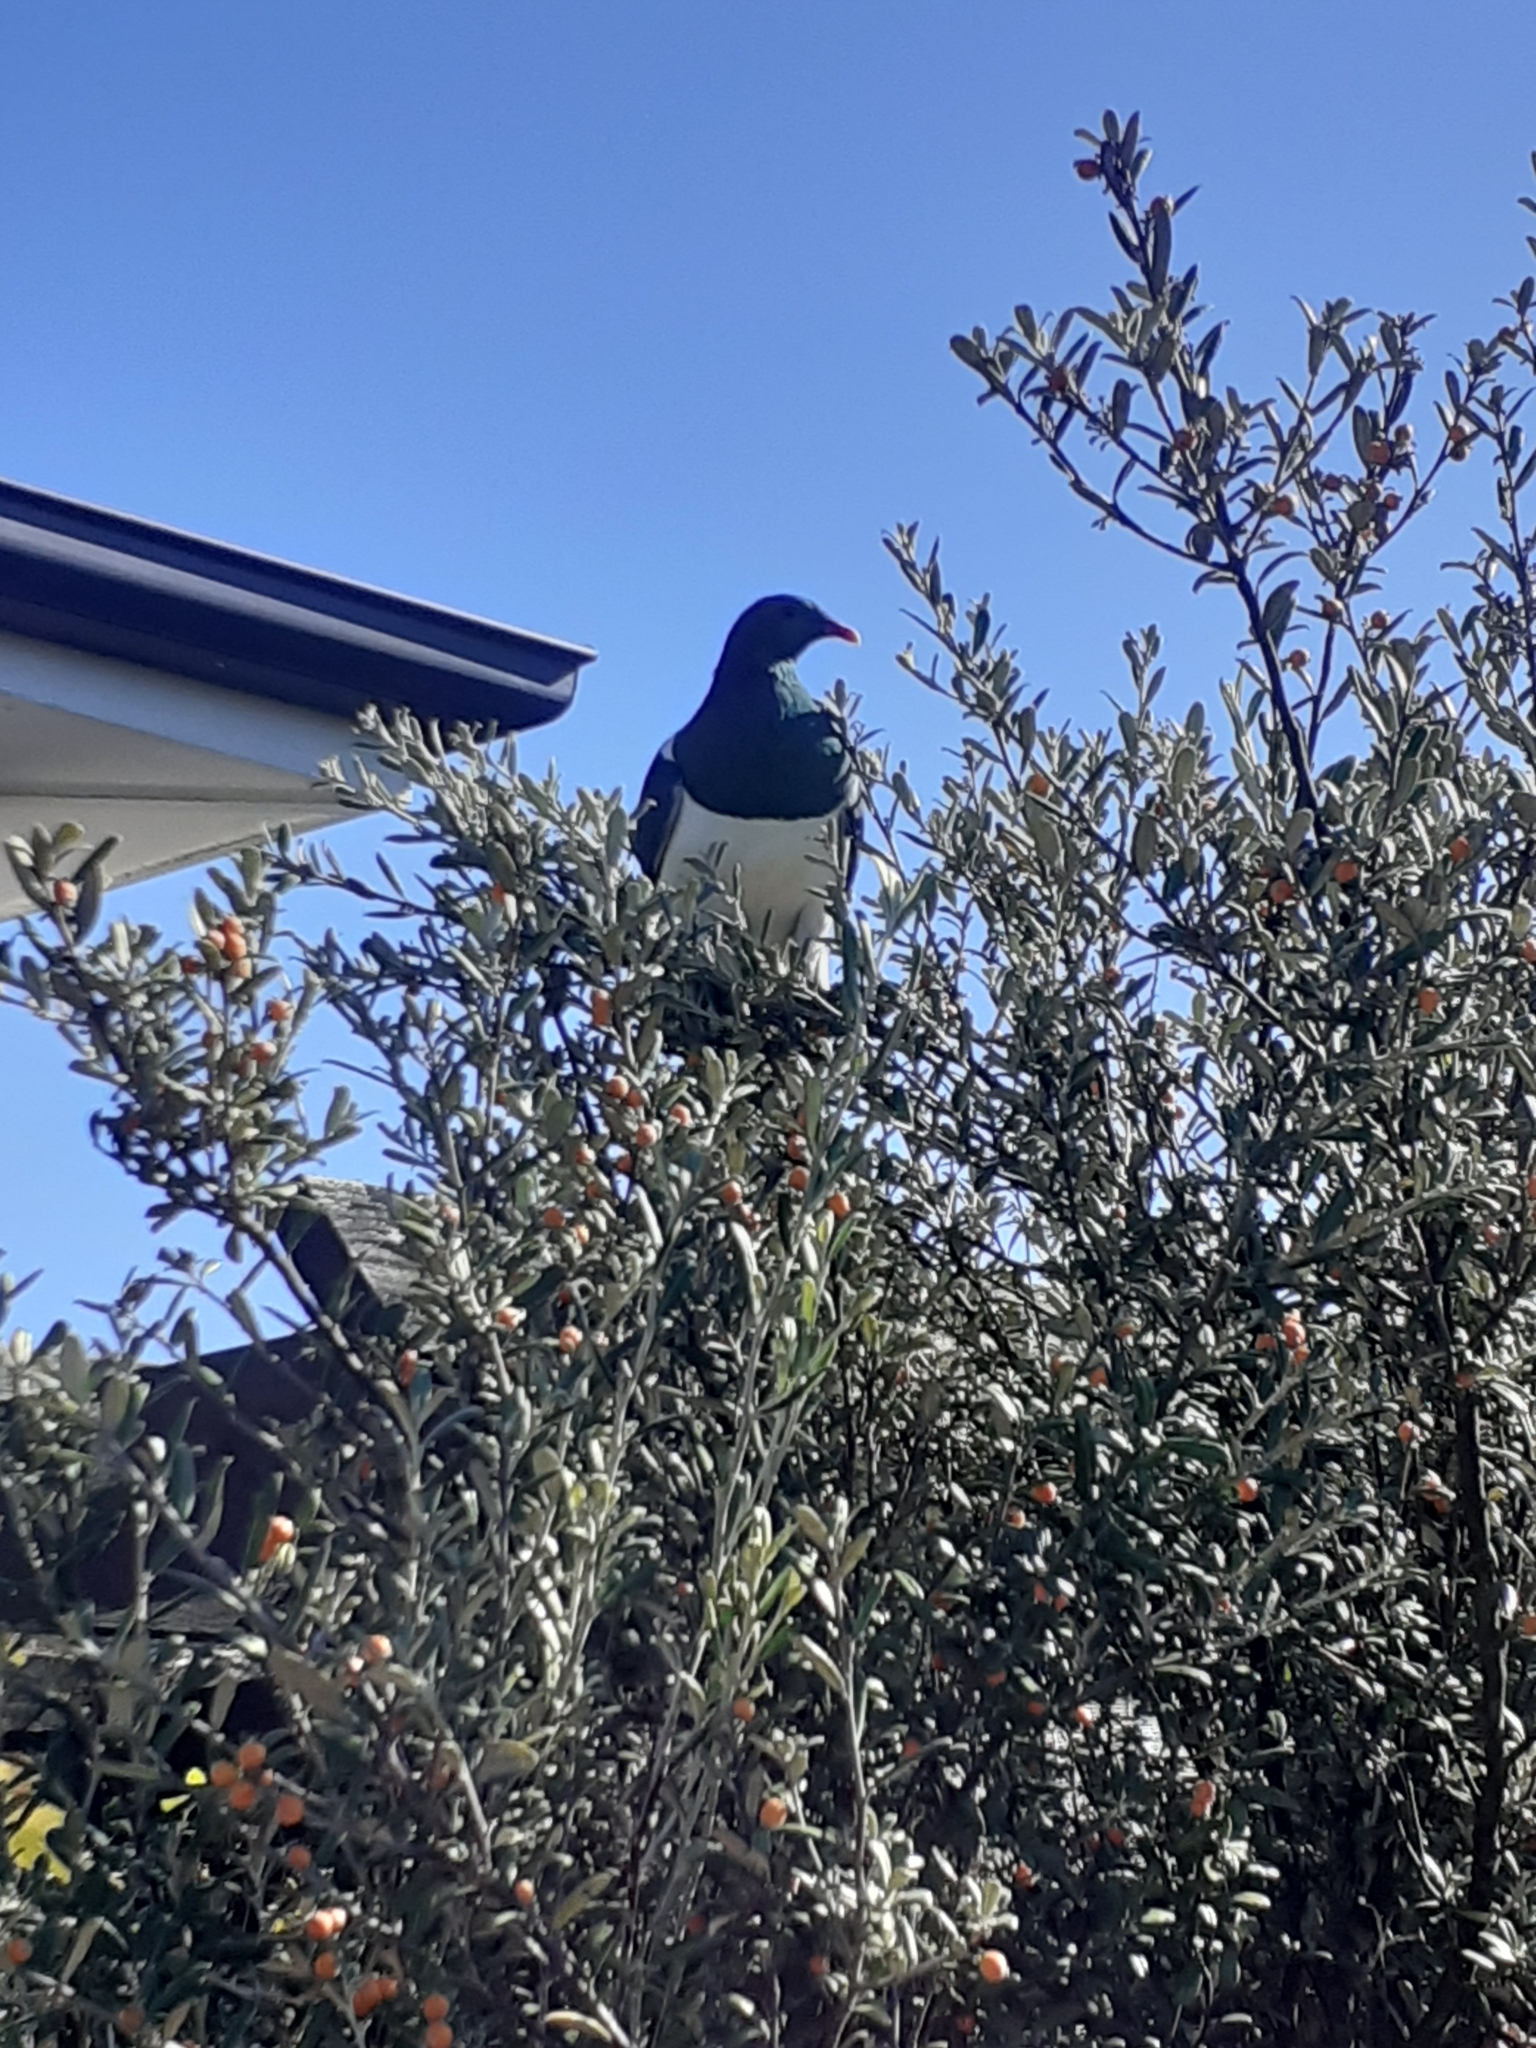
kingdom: Animalia
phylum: Chordata
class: Aves
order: Columbiformes
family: Columbidae
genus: Hemiphaga
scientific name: Hemiphaga novaeseelandiae
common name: New zealand pigeon
